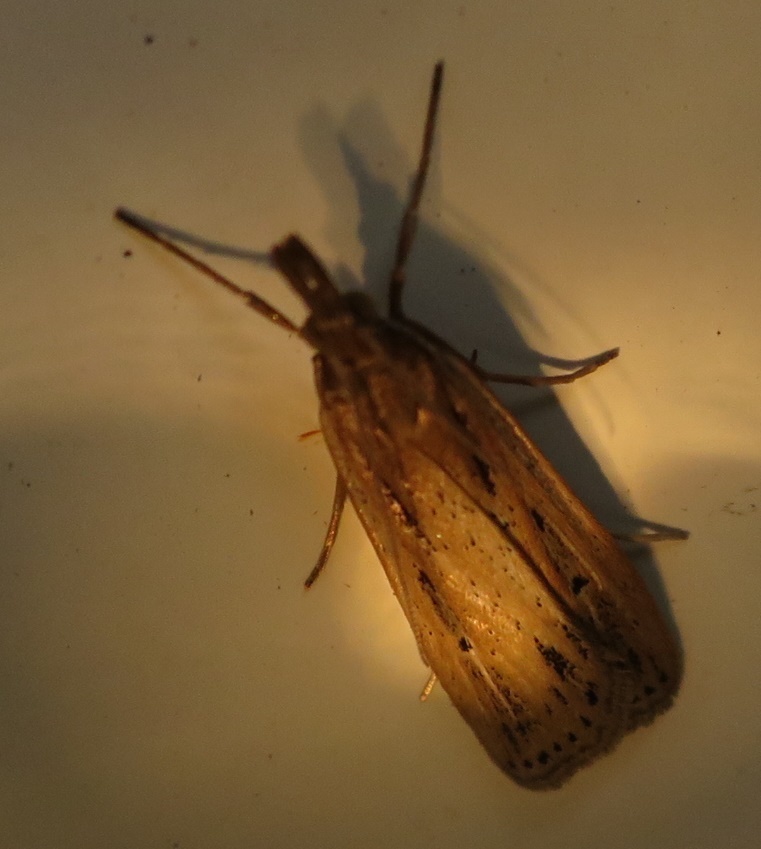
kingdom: Animalia
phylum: Arthropoda
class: Insecta
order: Lepidoptera
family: Crambidae
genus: Eudonia
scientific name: Eudonia sabulosella
